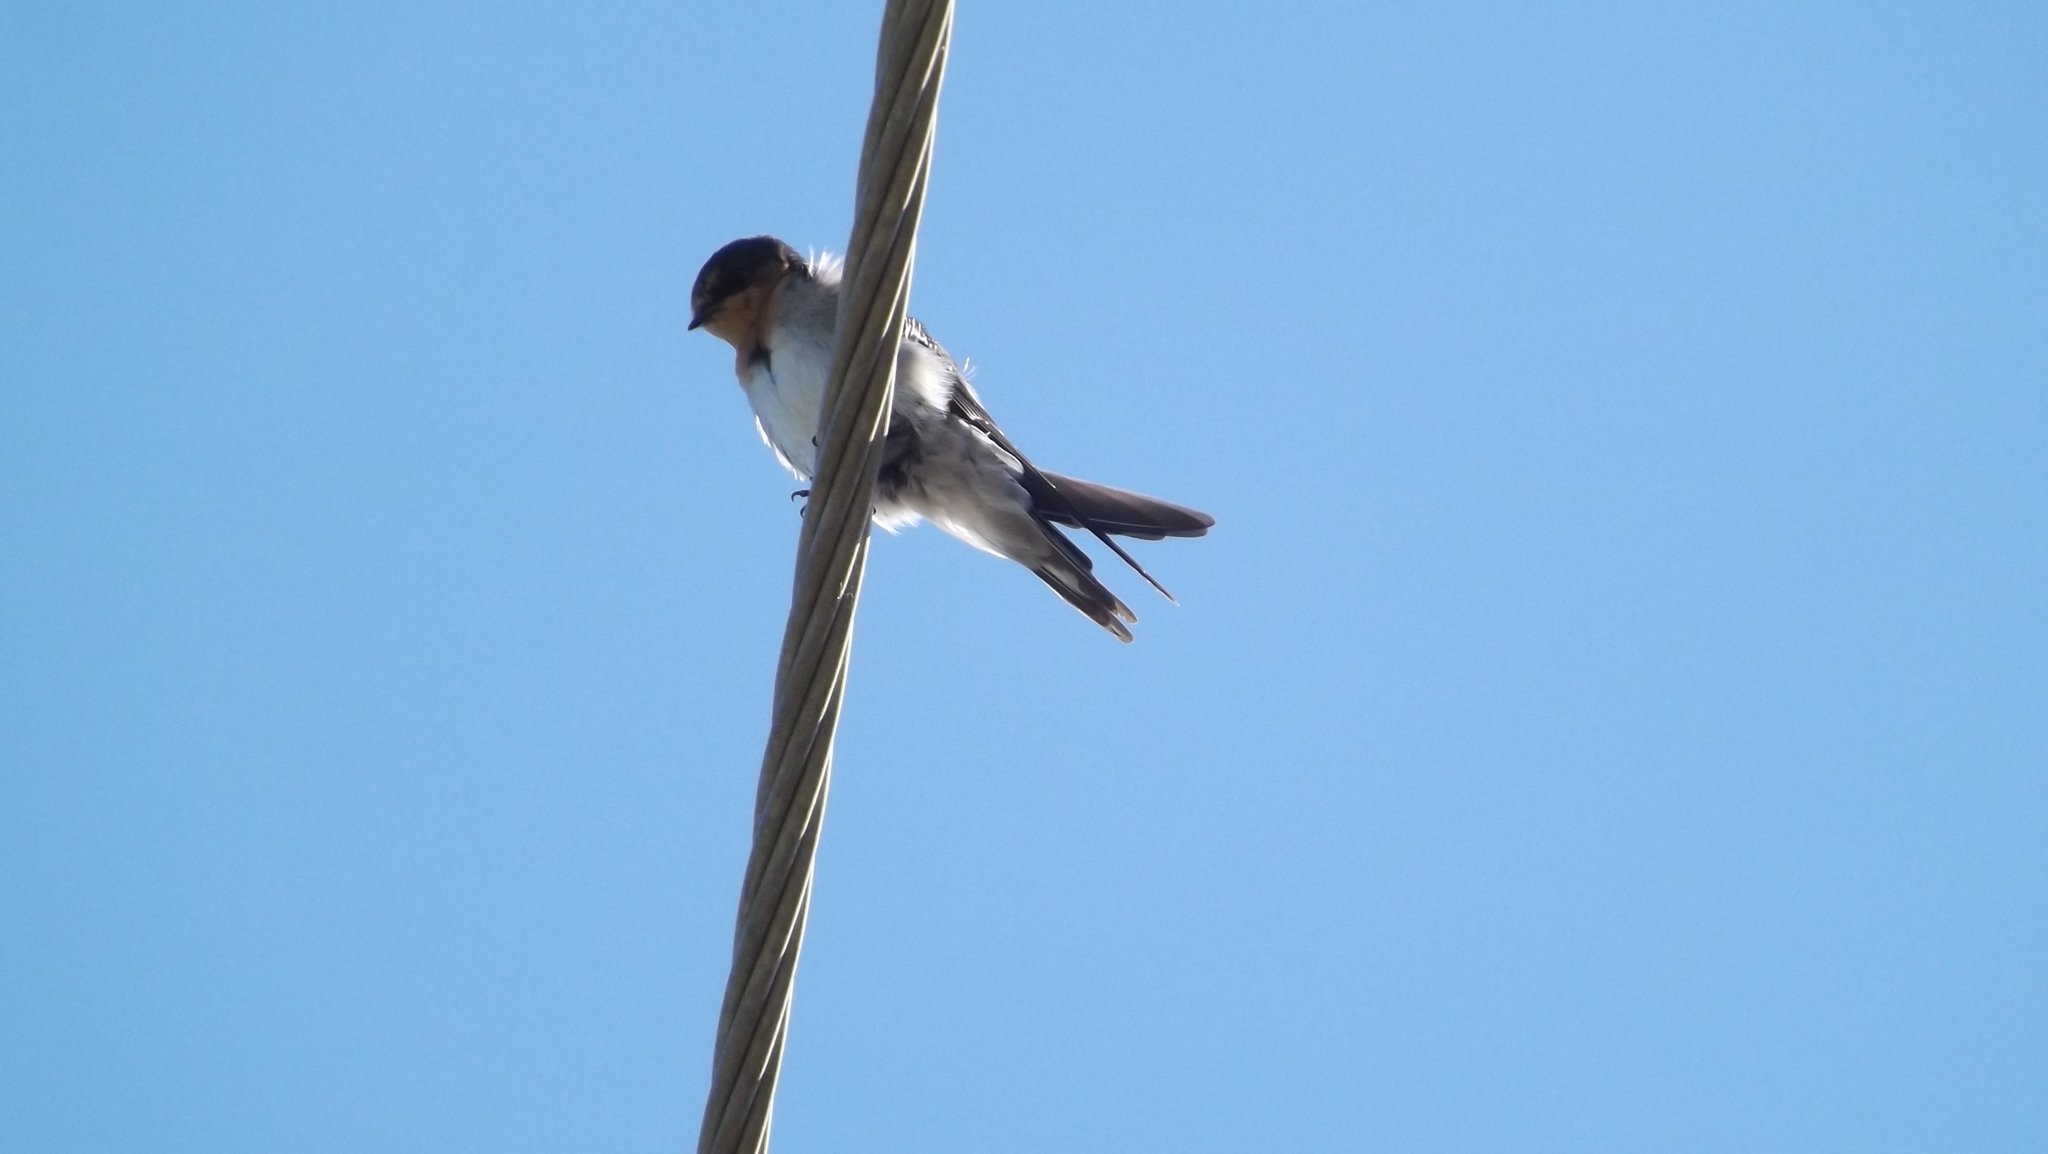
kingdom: Animalia
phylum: Chordata
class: Aves
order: Passeriformes
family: Hirundinidae
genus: Hirundo
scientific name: Hirundo neoxena
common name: Welcome swallow
